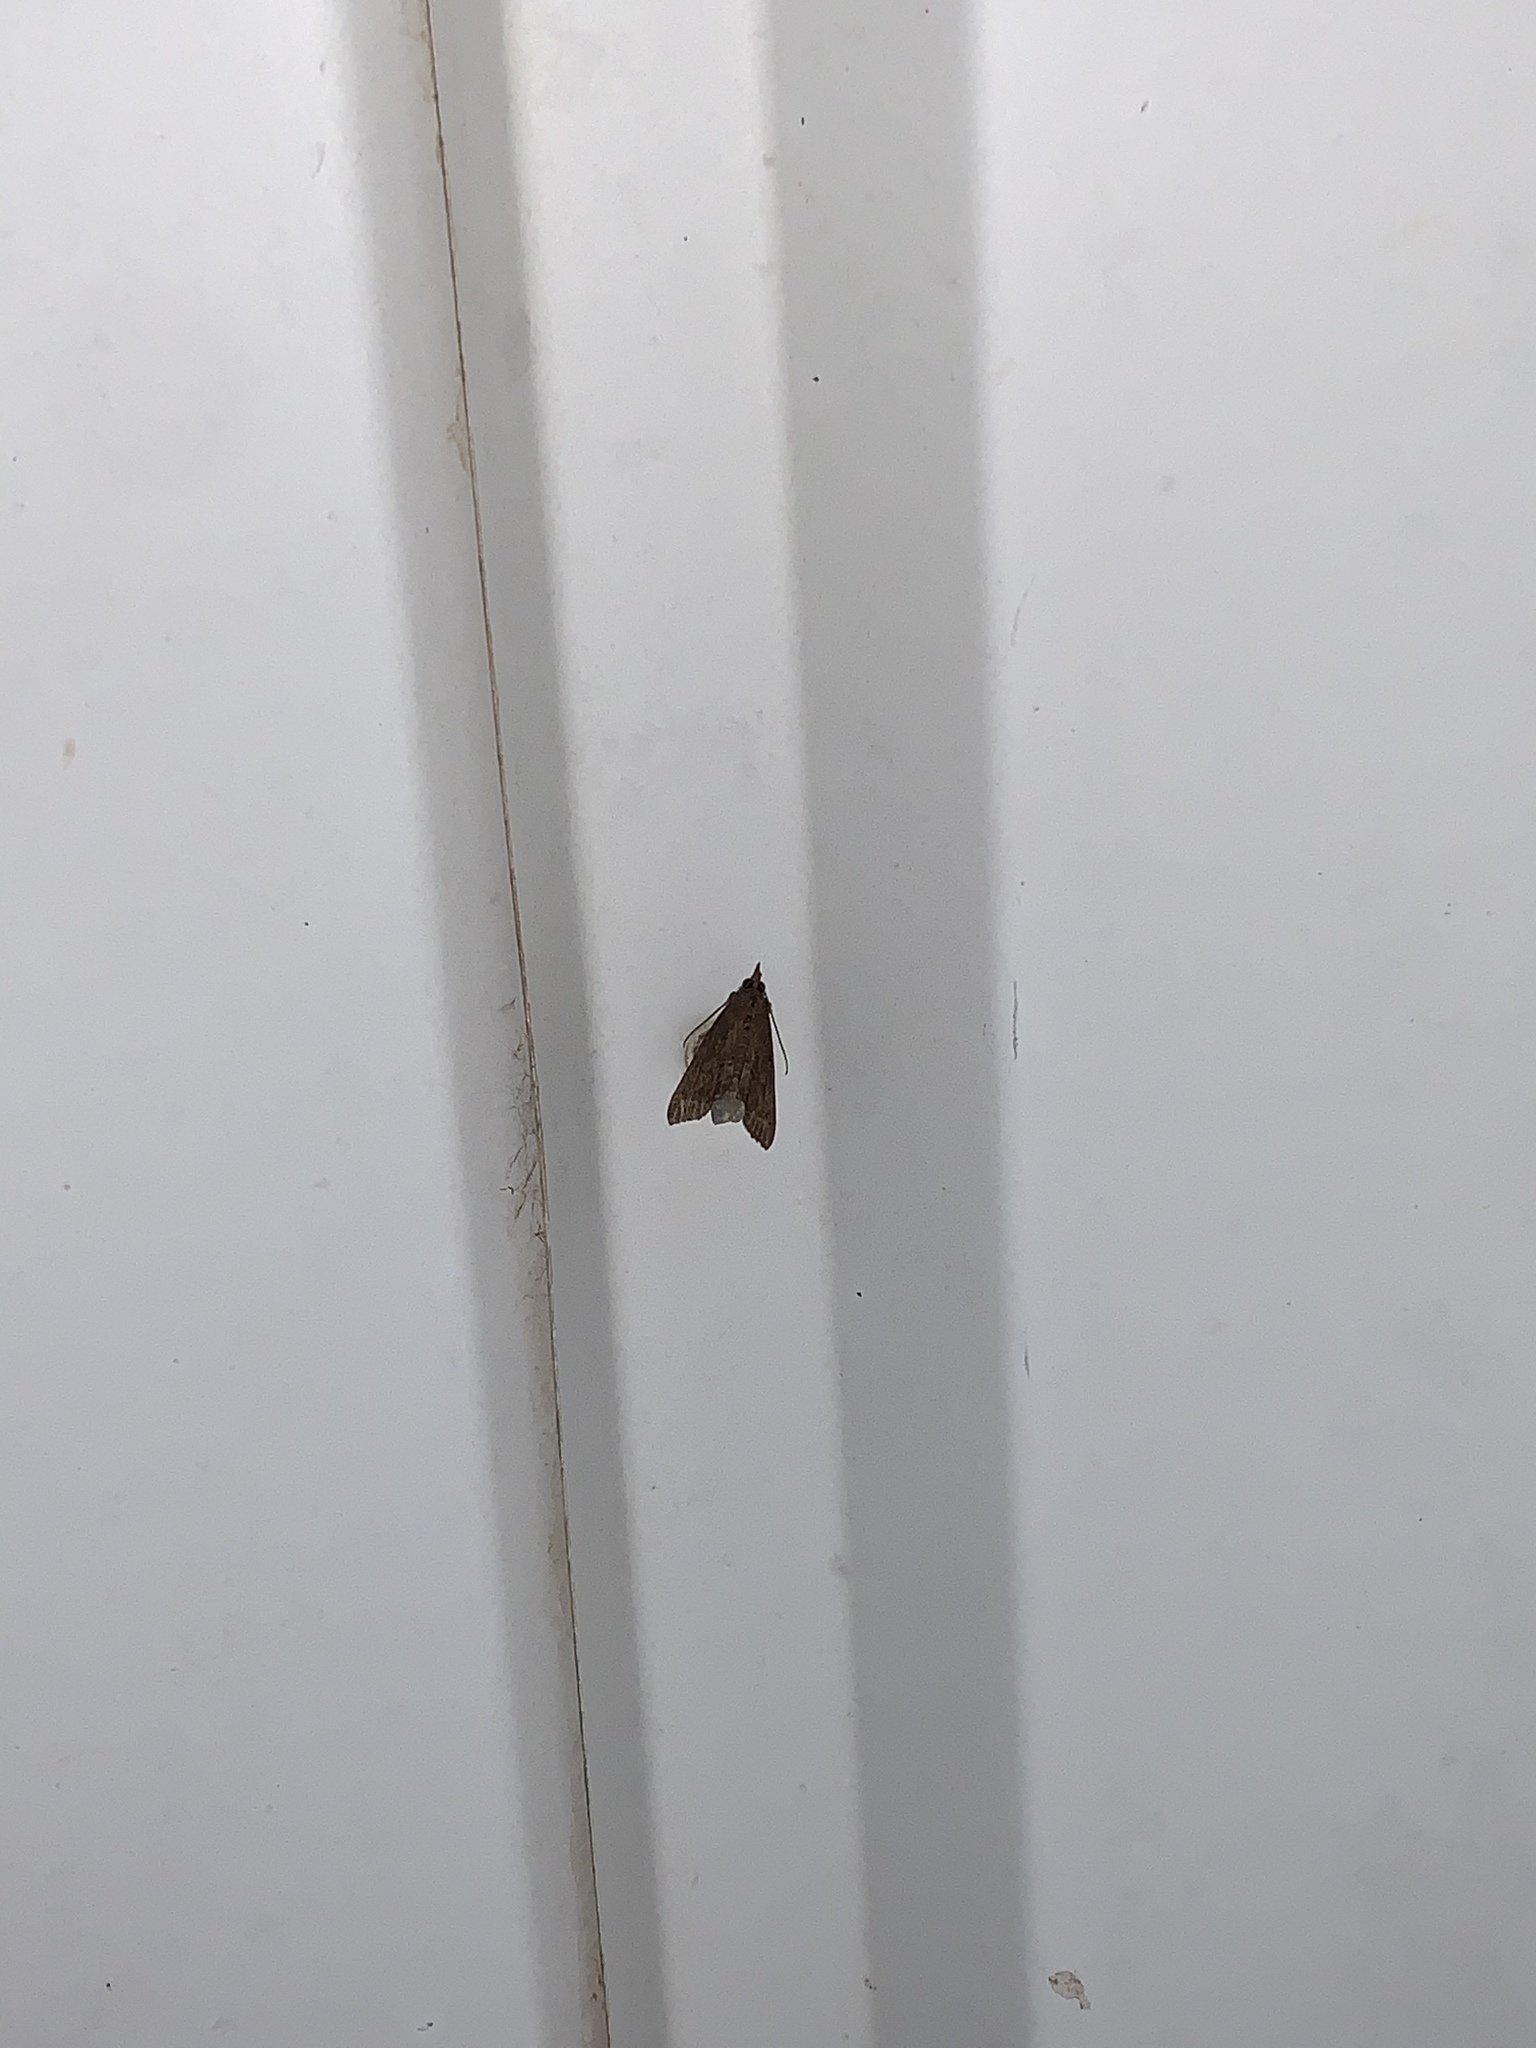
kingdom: Animalia
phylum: Arthropoda
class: Insecta
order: Lepidoptera
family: Erebidae
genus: Hypena
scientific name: Hypena scabra
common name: Green cloverworm
